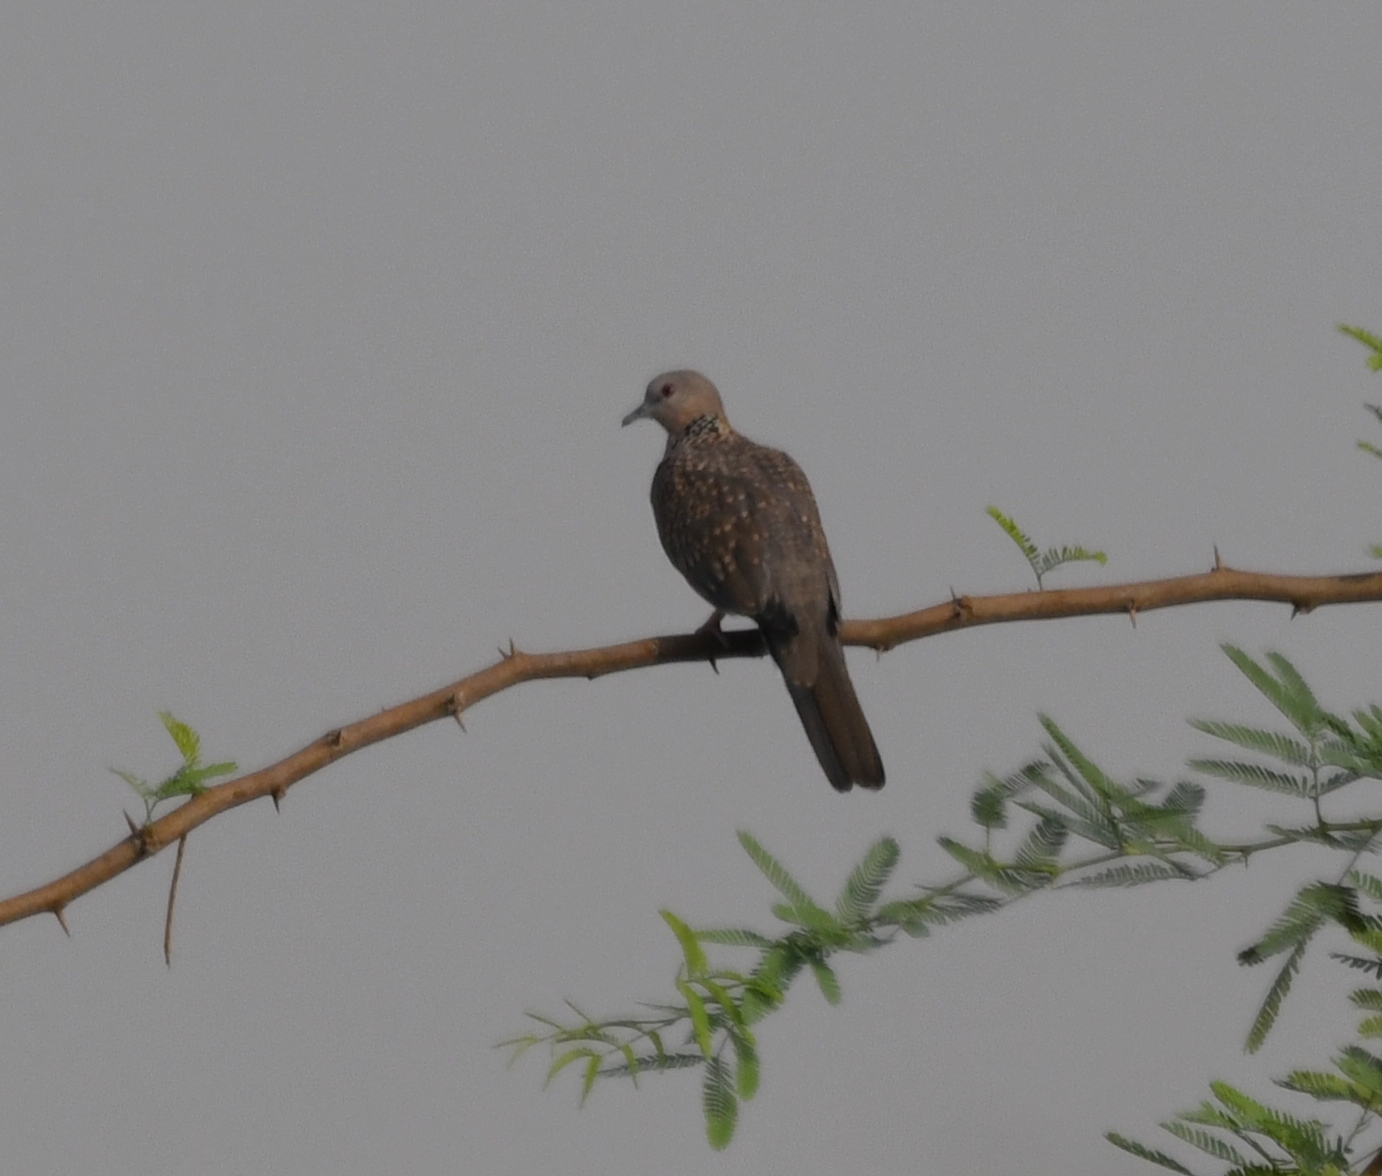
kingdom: Animalia
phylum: Chordata
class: Aves
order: Columbiformes
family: Columbidae
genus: Spilopelia
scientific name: Spilopelia chinensis
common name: Spotted dove
